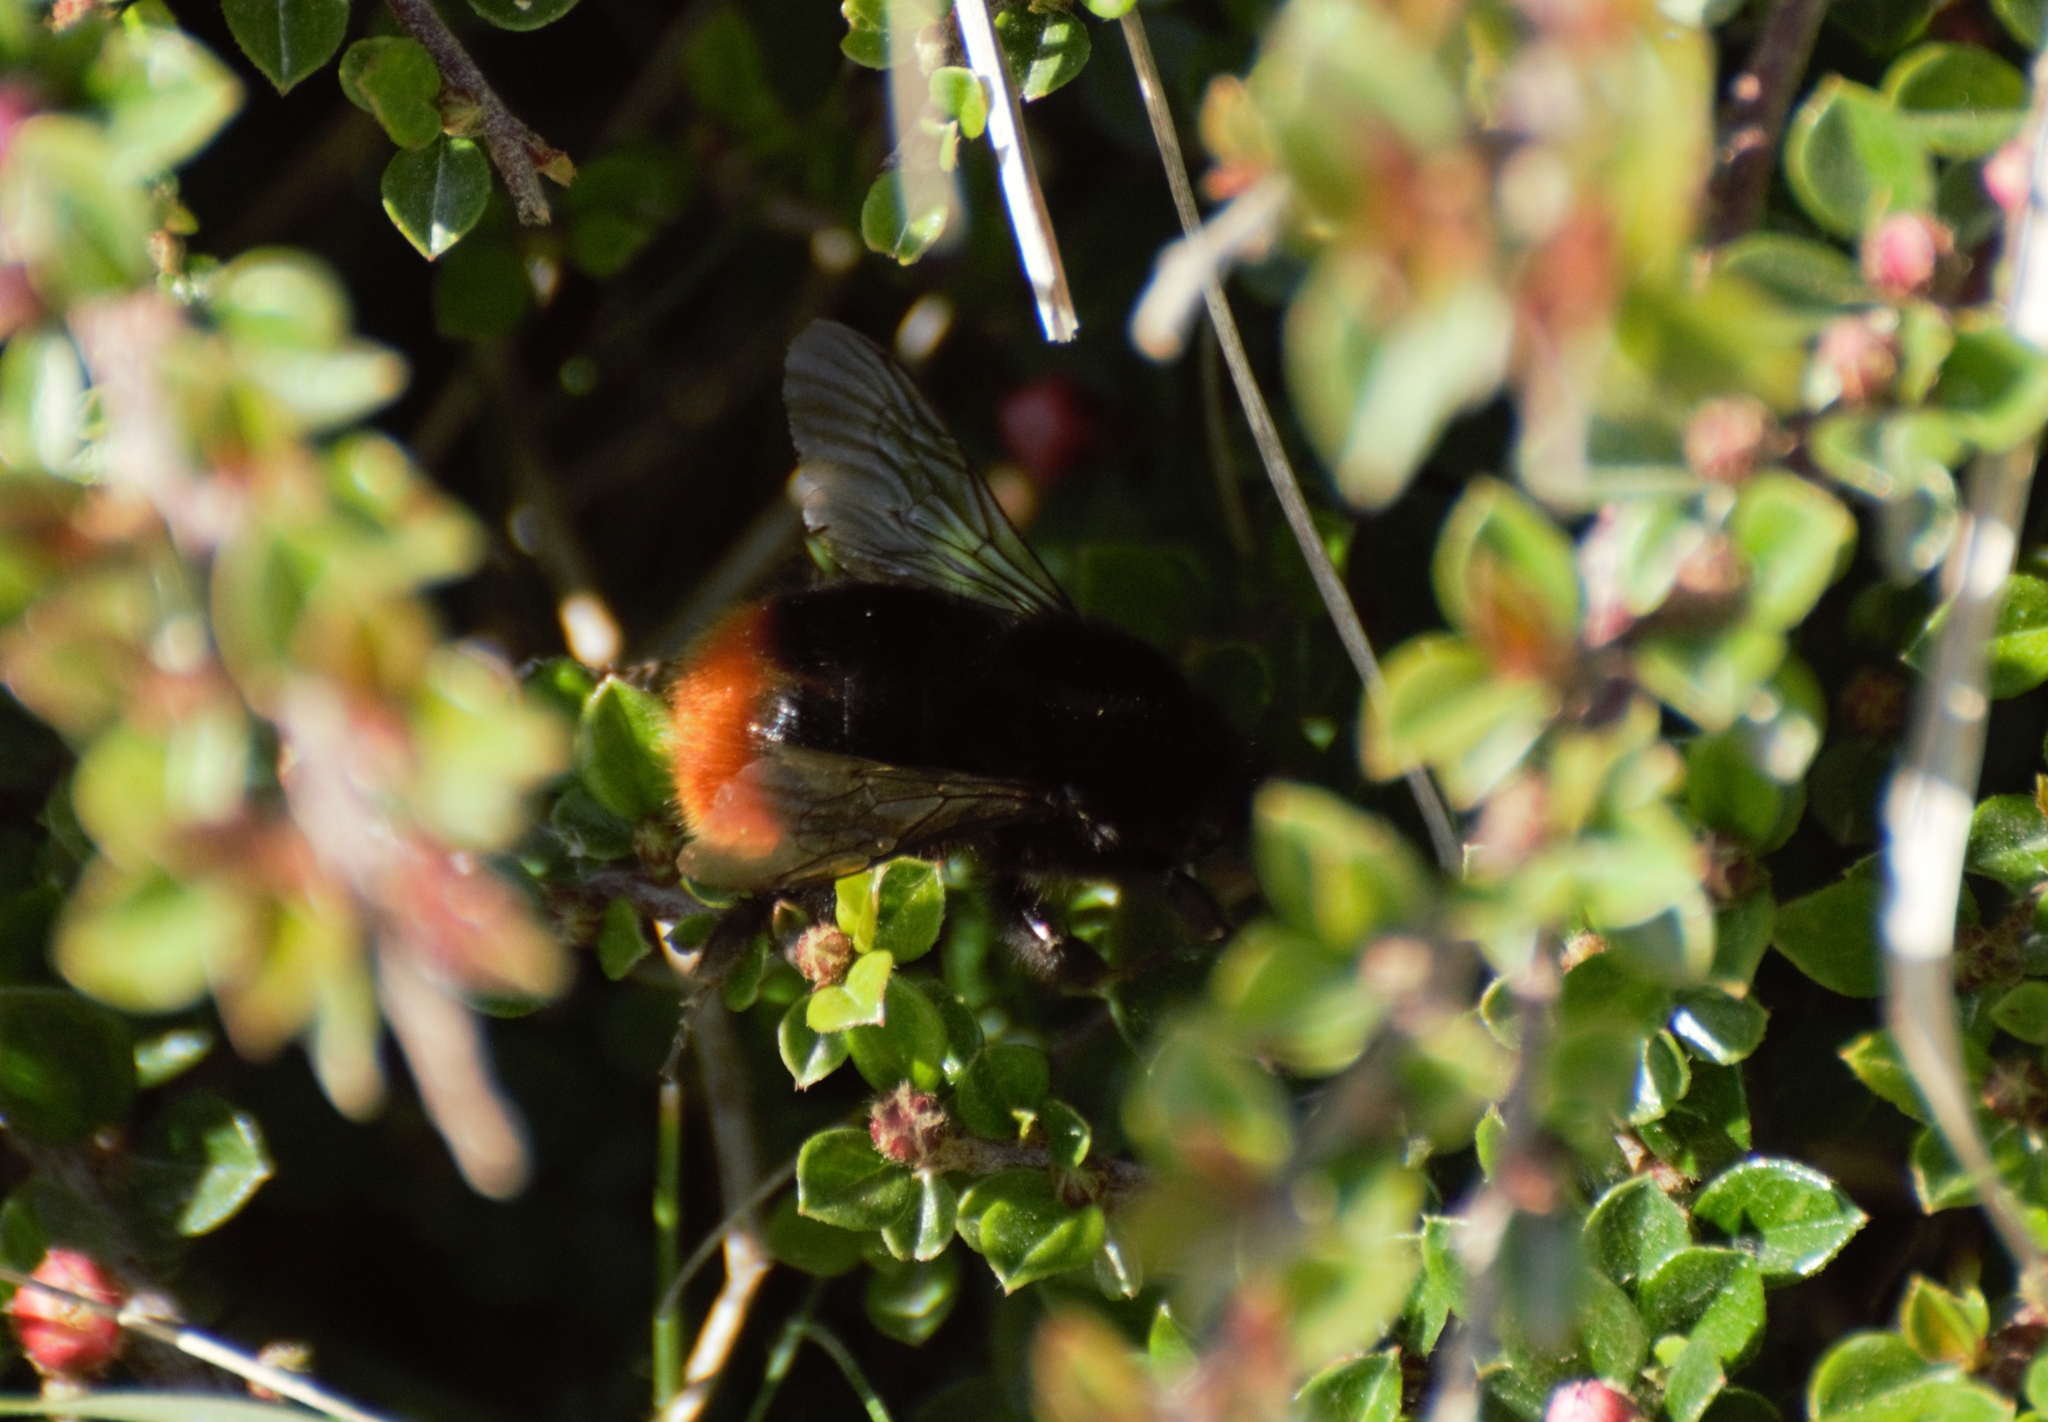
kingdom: Animalia
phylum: Arthropoda
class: Insecta
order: Hymenoptera
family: Apidae
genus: Bombus
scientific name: Bombus lapidarius
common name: Large red-tailed humble-bee
